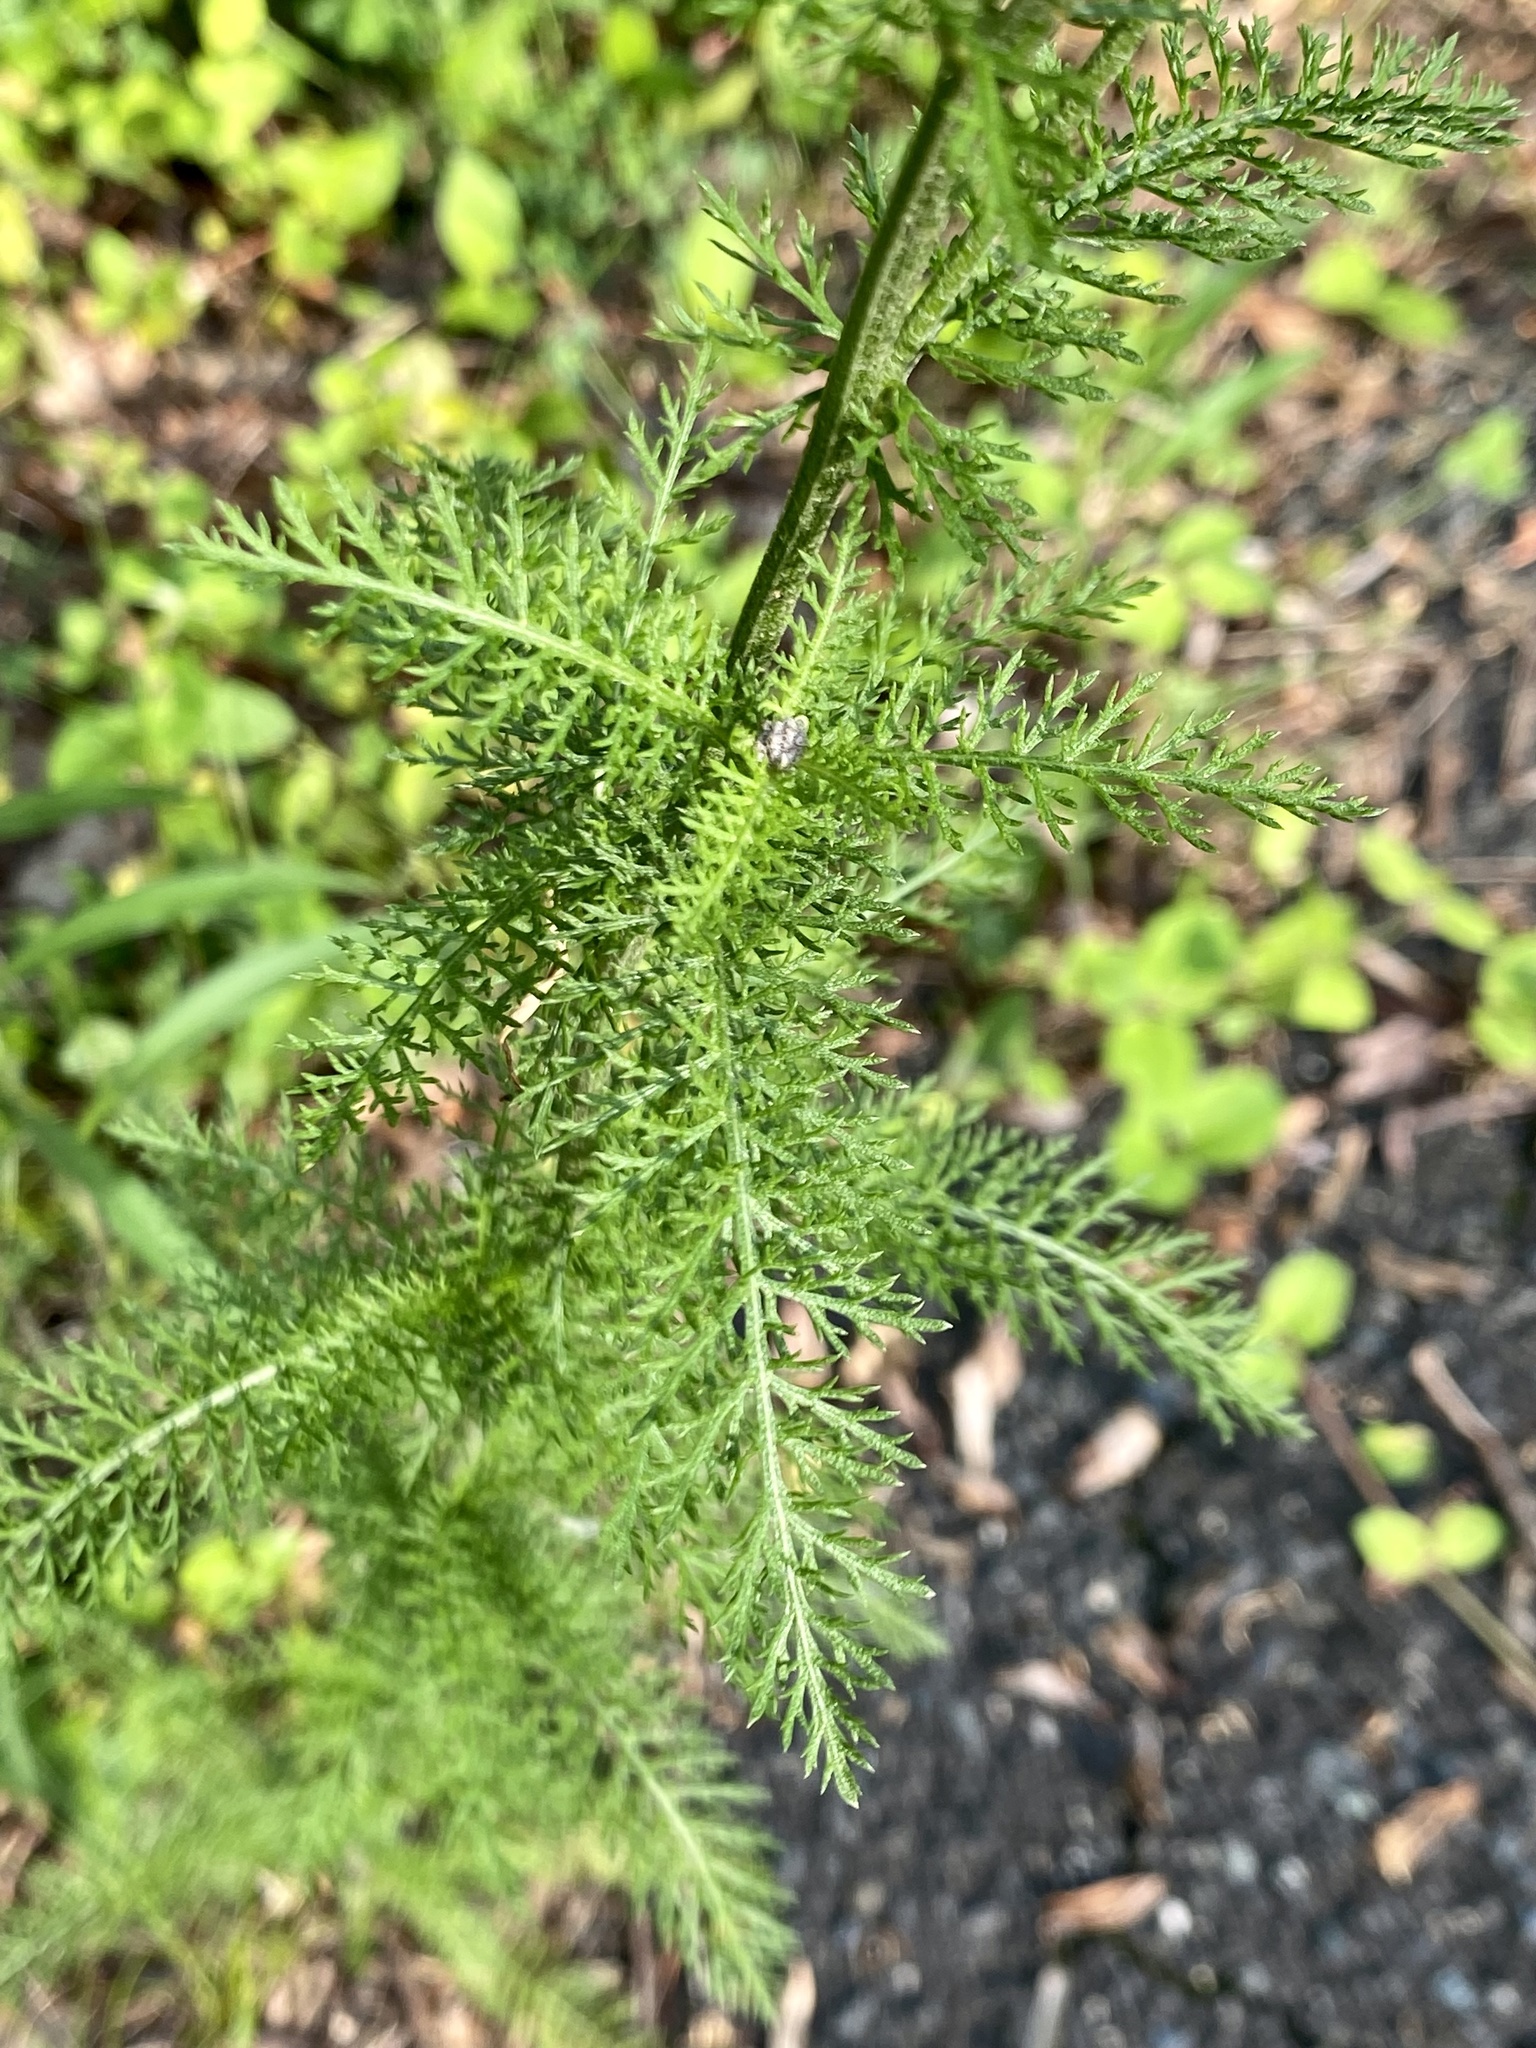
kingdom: Plantae
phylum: Tracheophyta
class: Magnoliopsida
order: Asterales
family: Asteraceae
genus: Achillea
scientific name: Achillea millefolium
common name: Yarrow
